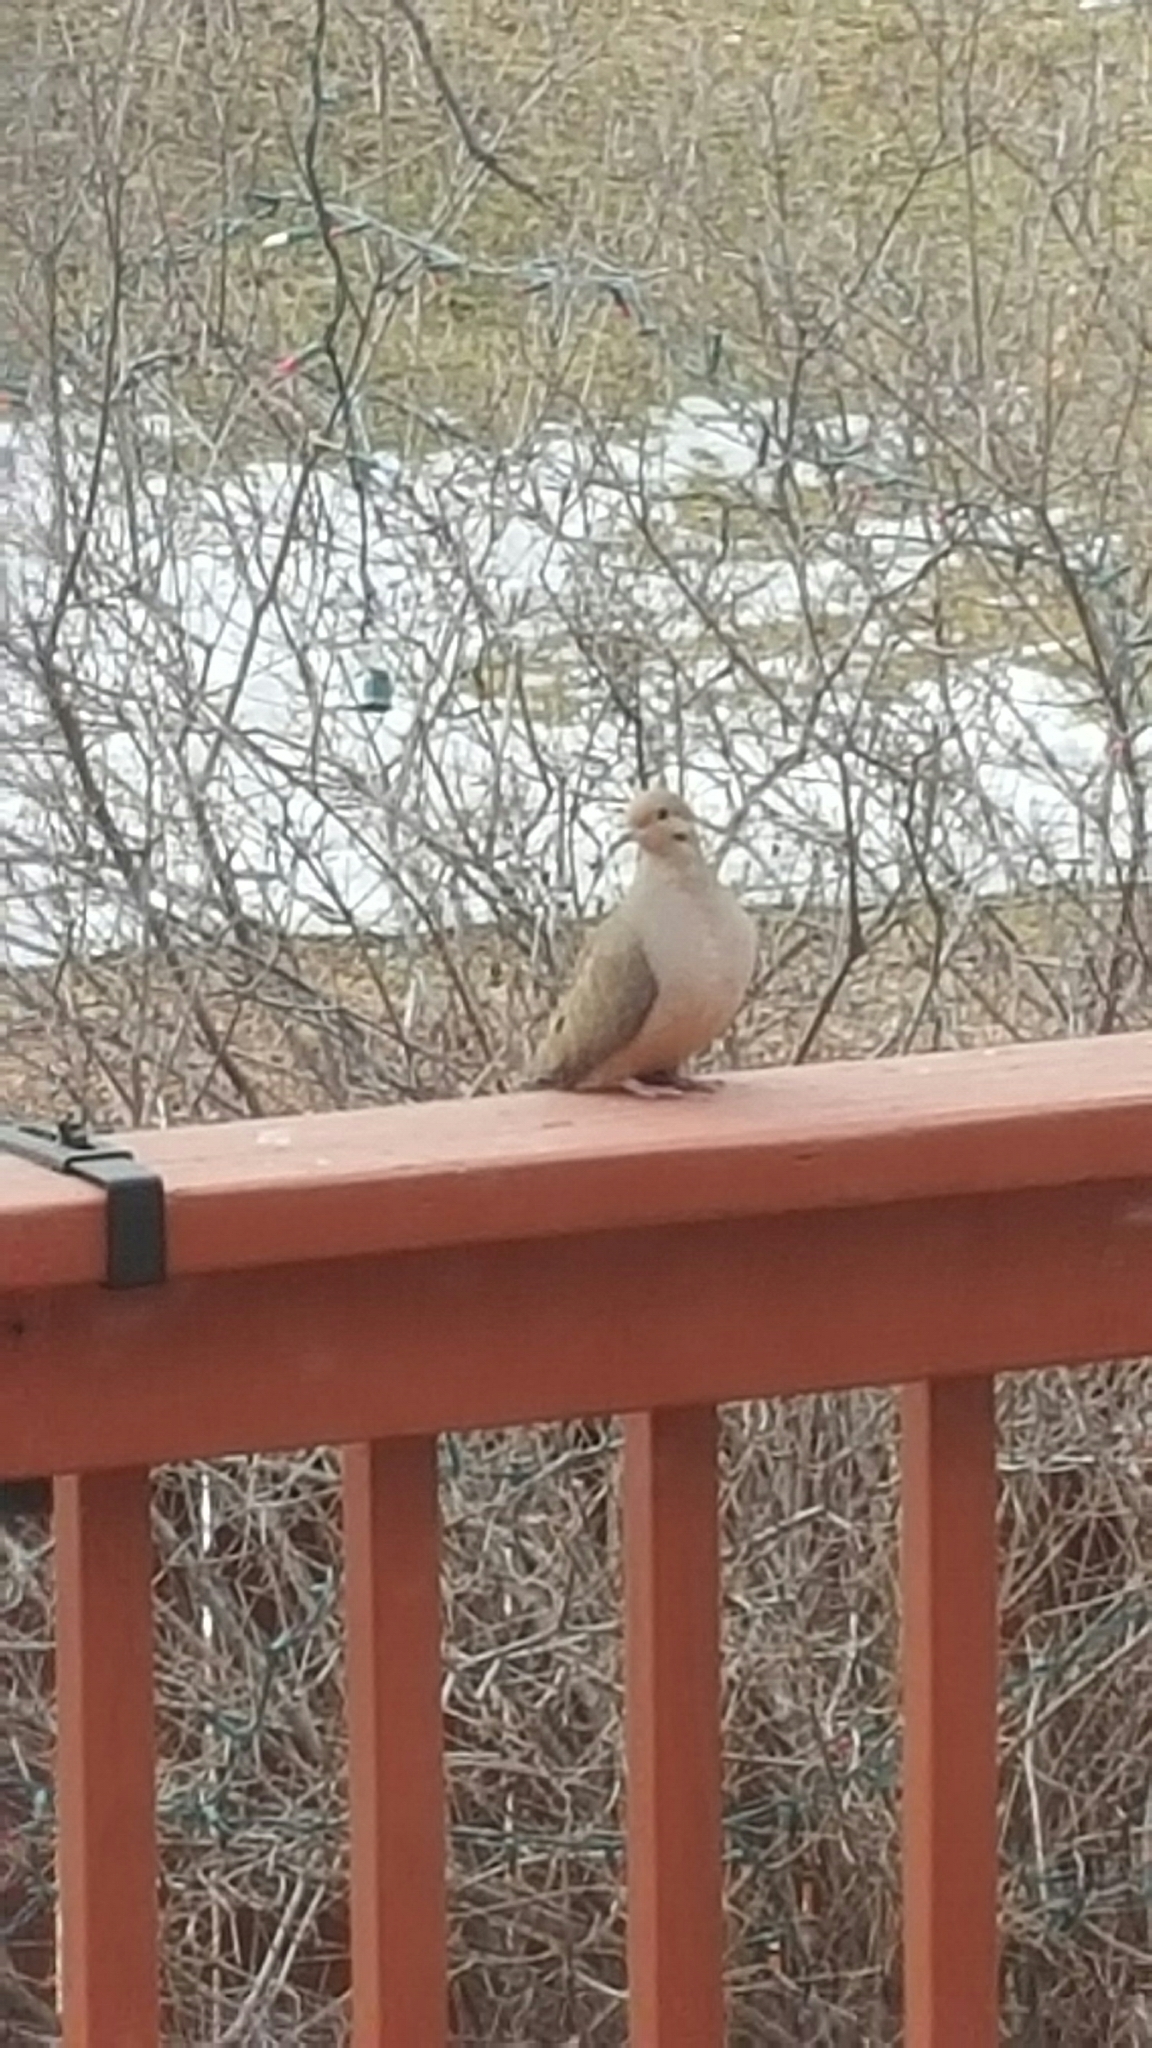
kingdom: Animalia
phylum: Chordata
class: Aves
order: Columbiformes
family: Columbidae
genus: Zenaida
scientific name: Zenaida macroura
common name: Mourning dove
